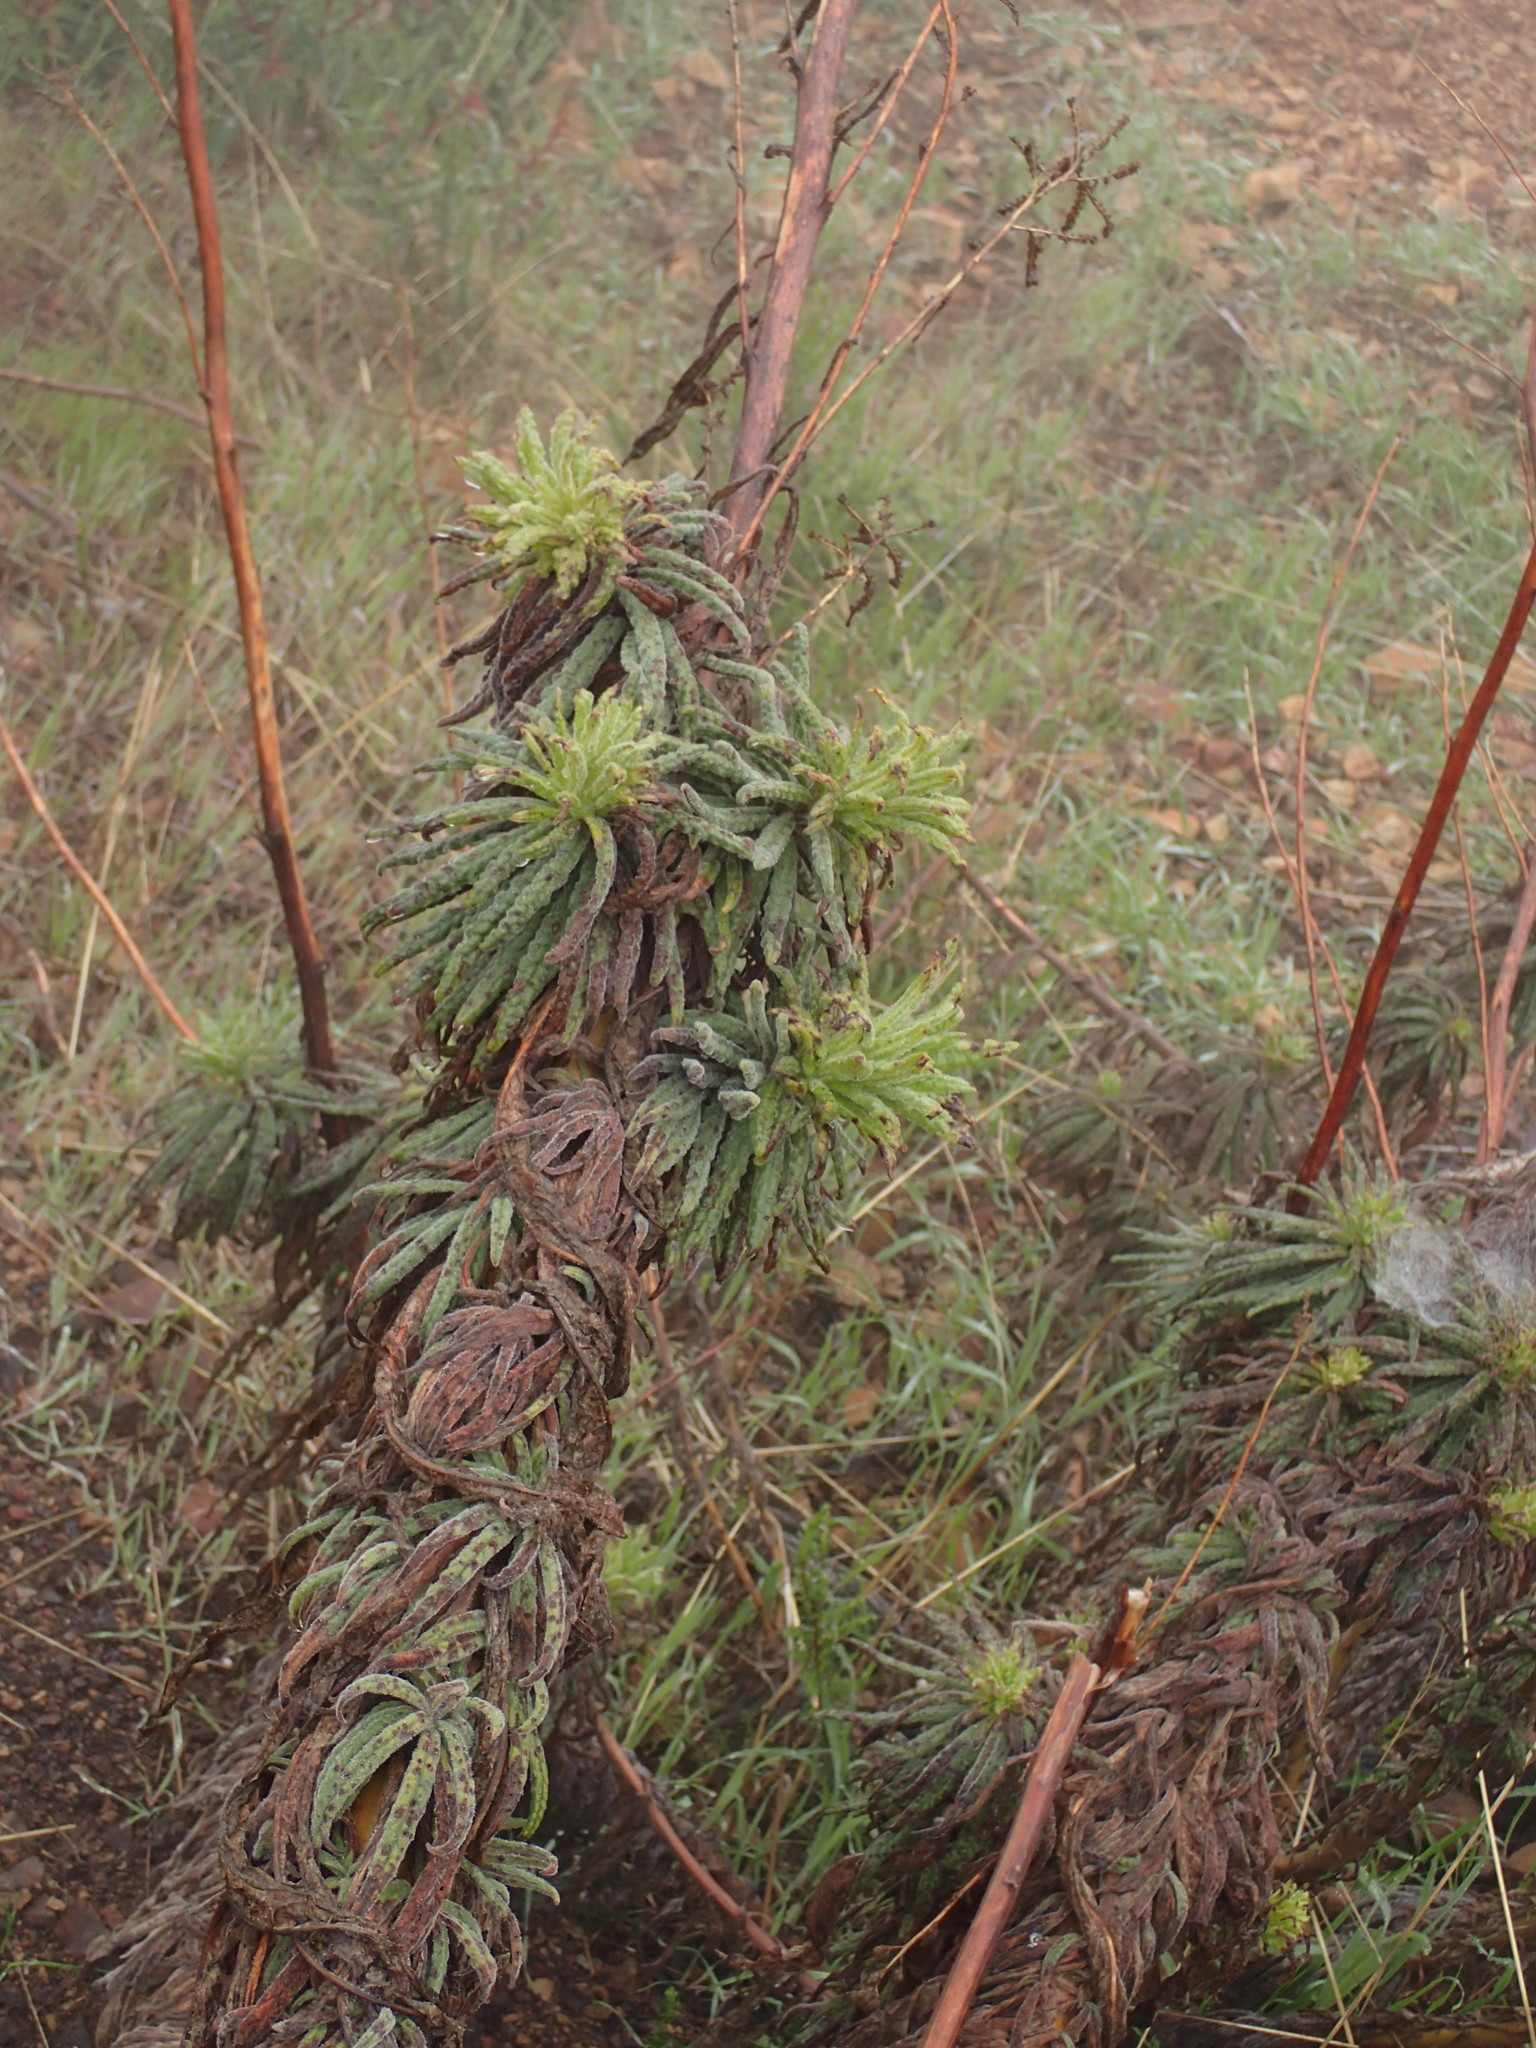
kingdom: Plantae
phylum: Tracheophyta
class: Magnoliopsida
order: Boraginales
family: Namaceae
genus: Turricula
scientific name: Turricula parryi
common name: Poodle-dog-bush
